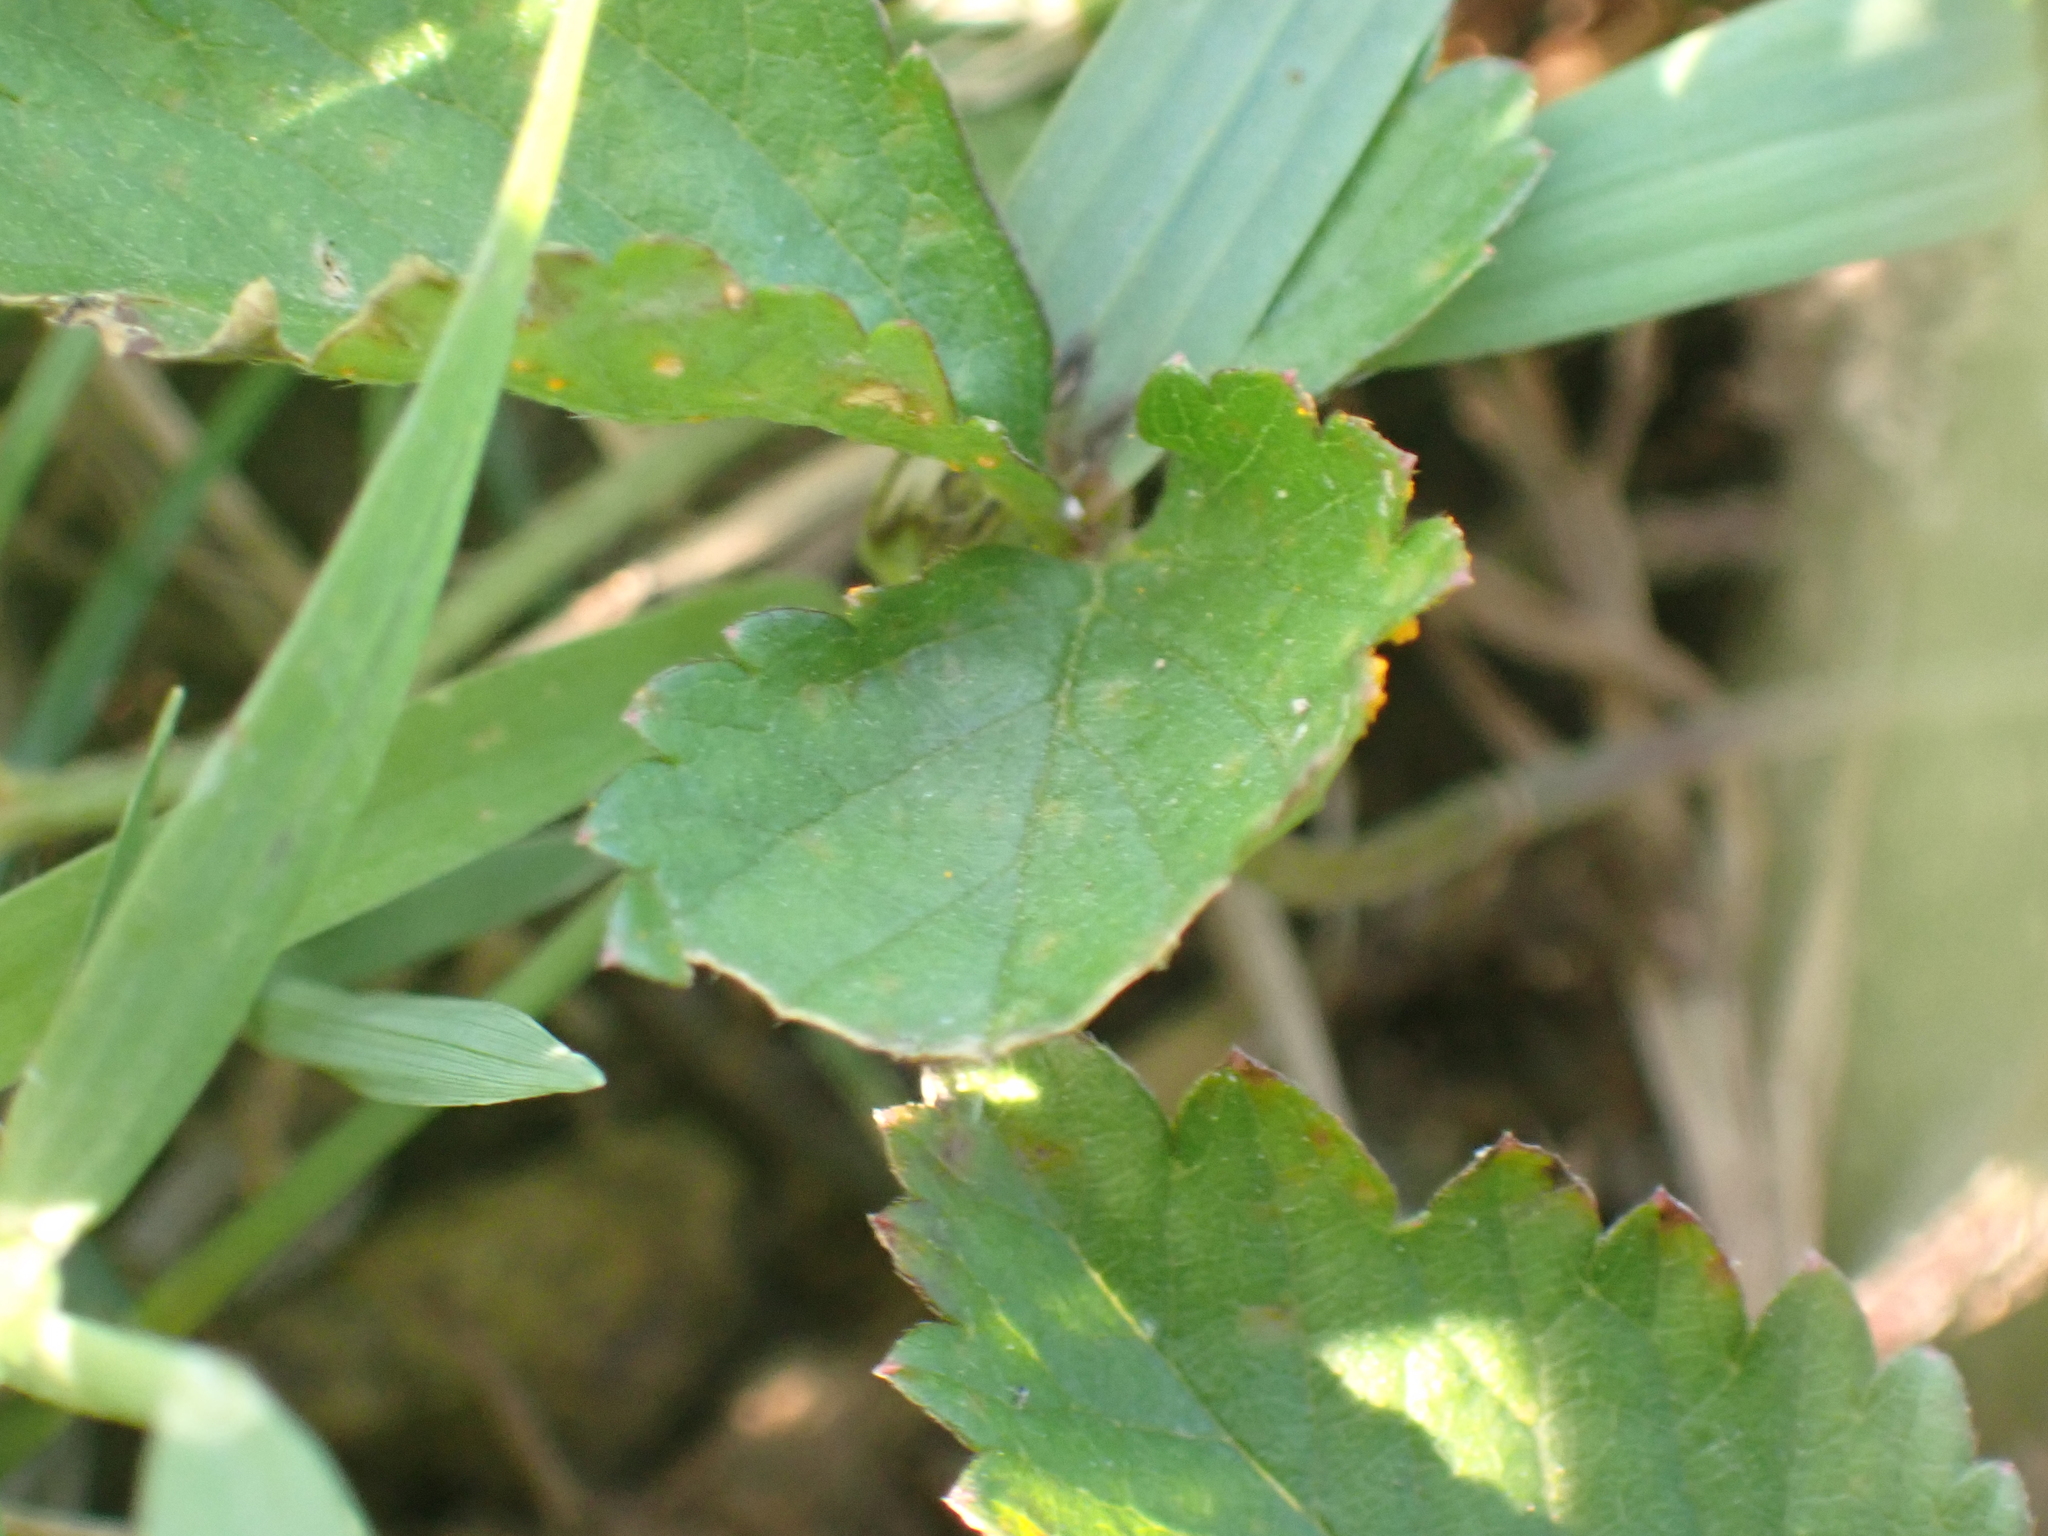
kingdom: Plantae
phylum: Tracheophyta
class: Magnoliopsida
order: Rosales
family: Rosaceae
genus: Potentilla
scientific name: Potentilla indica
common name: Yellow-flowered strawberry
